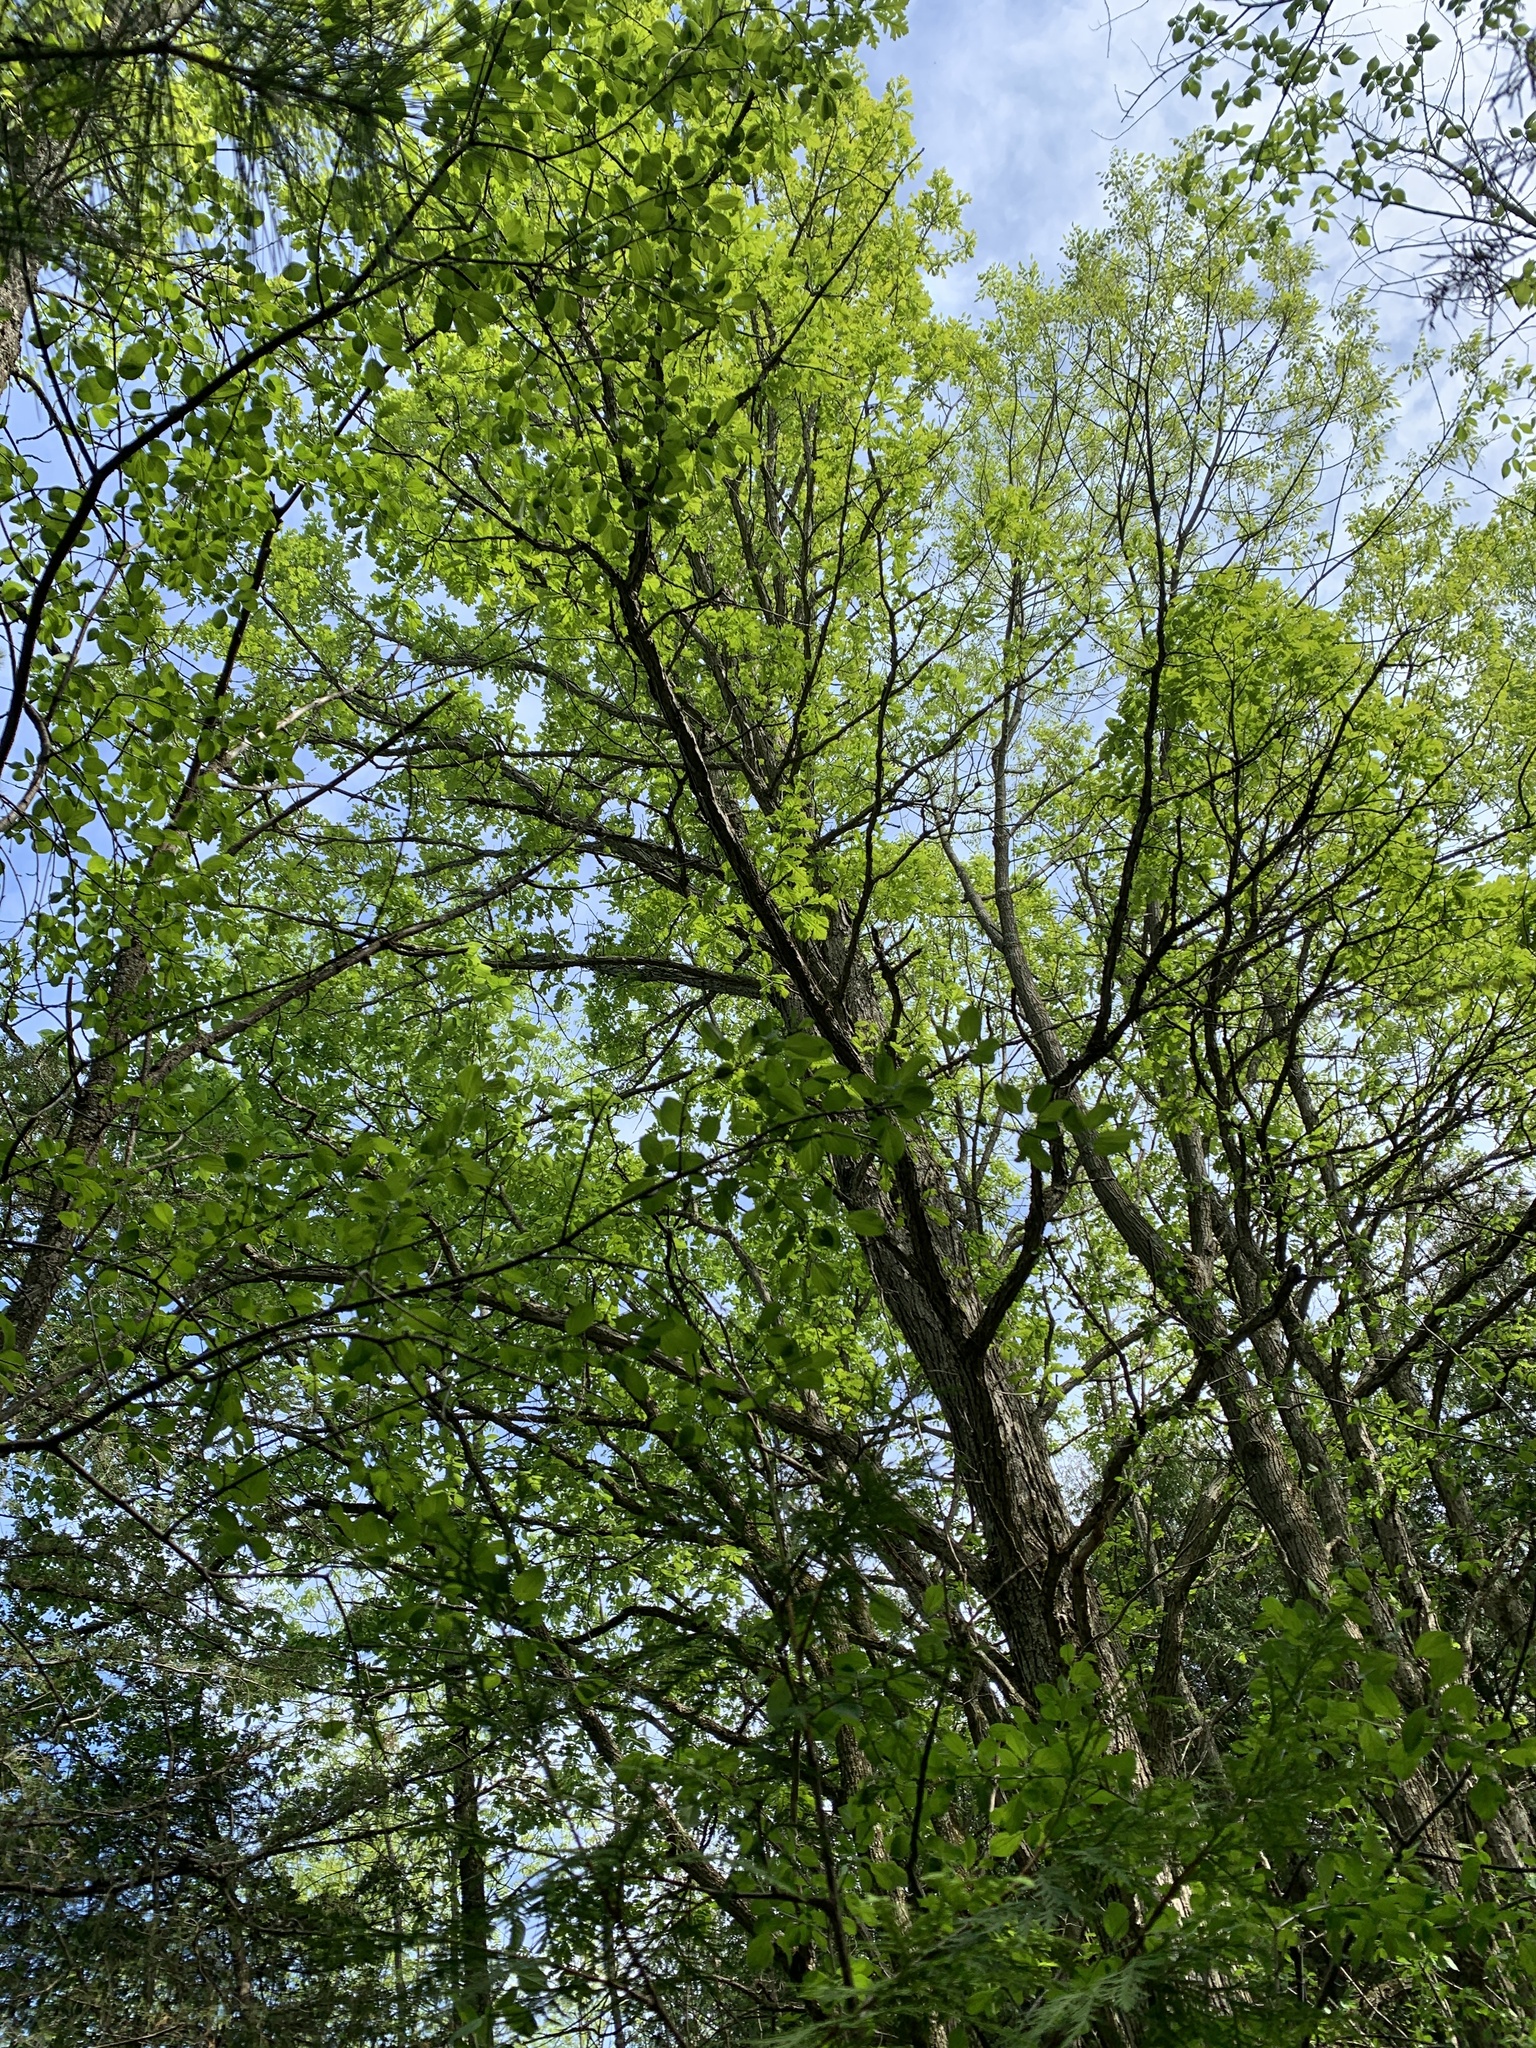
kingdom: Plantae
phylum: Tracheophyta
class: Magnoliopsida
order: Fagales
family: Fagaceae
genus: Quercus
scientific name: Quercus macrocarpa
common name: Bur oak
